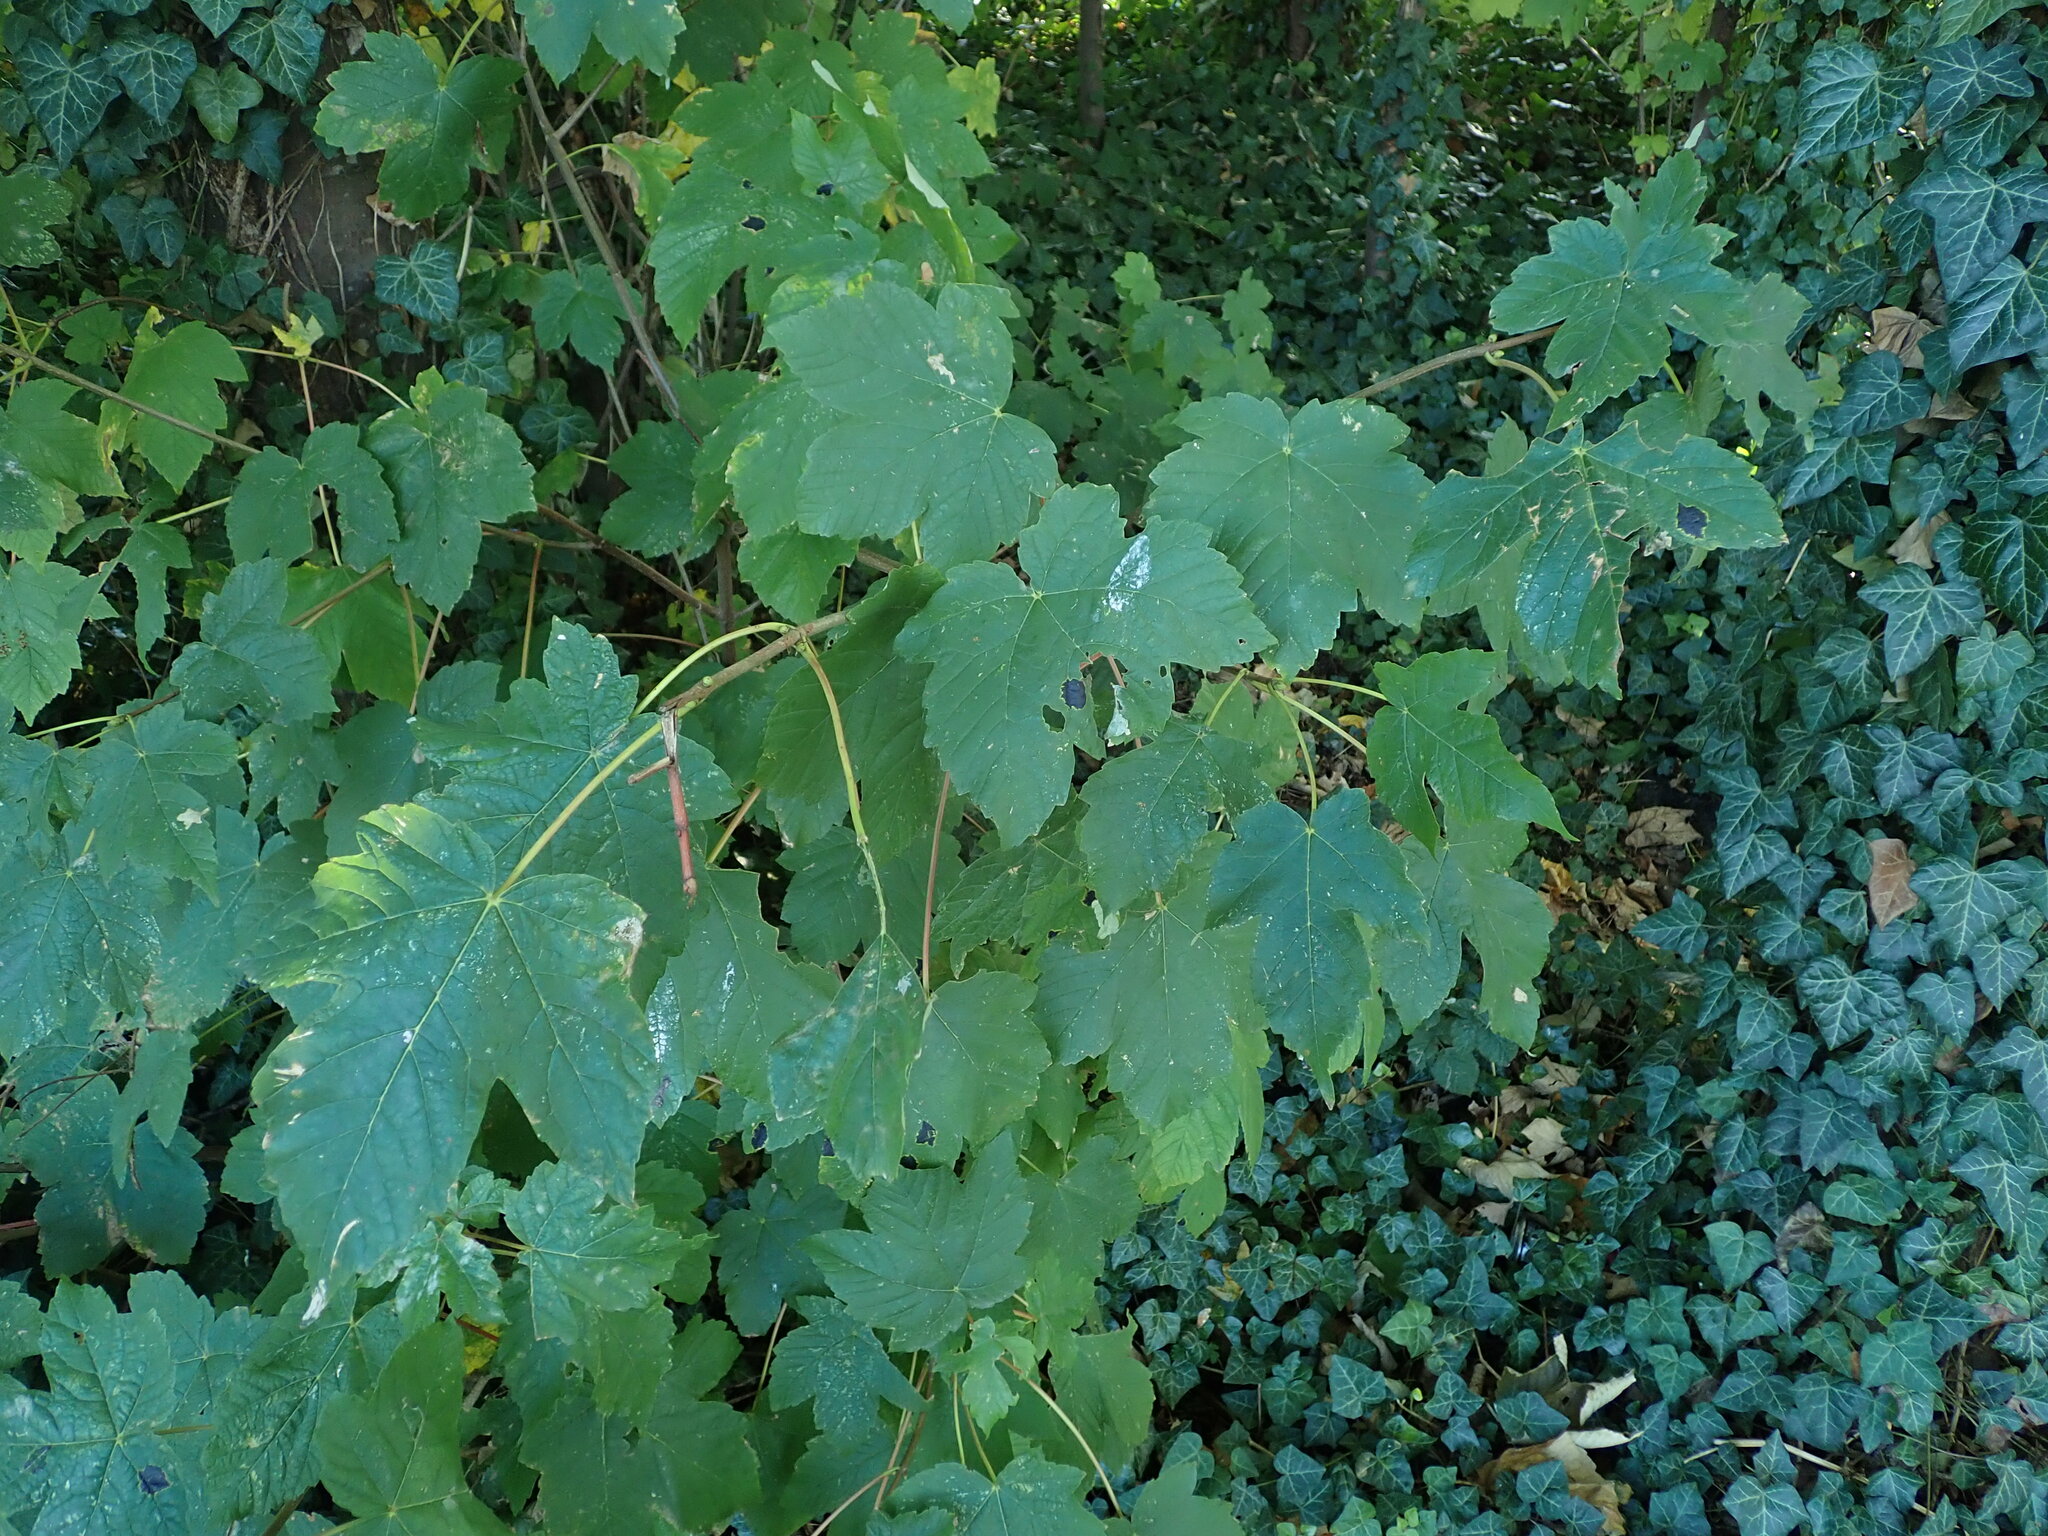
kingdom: Plantae
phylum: Tracheophyta
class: Magnoliopsida
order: Sapindales
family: Sapindaceae
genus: Acer
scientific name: Acer pseudoplatanus
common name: Sycamore
